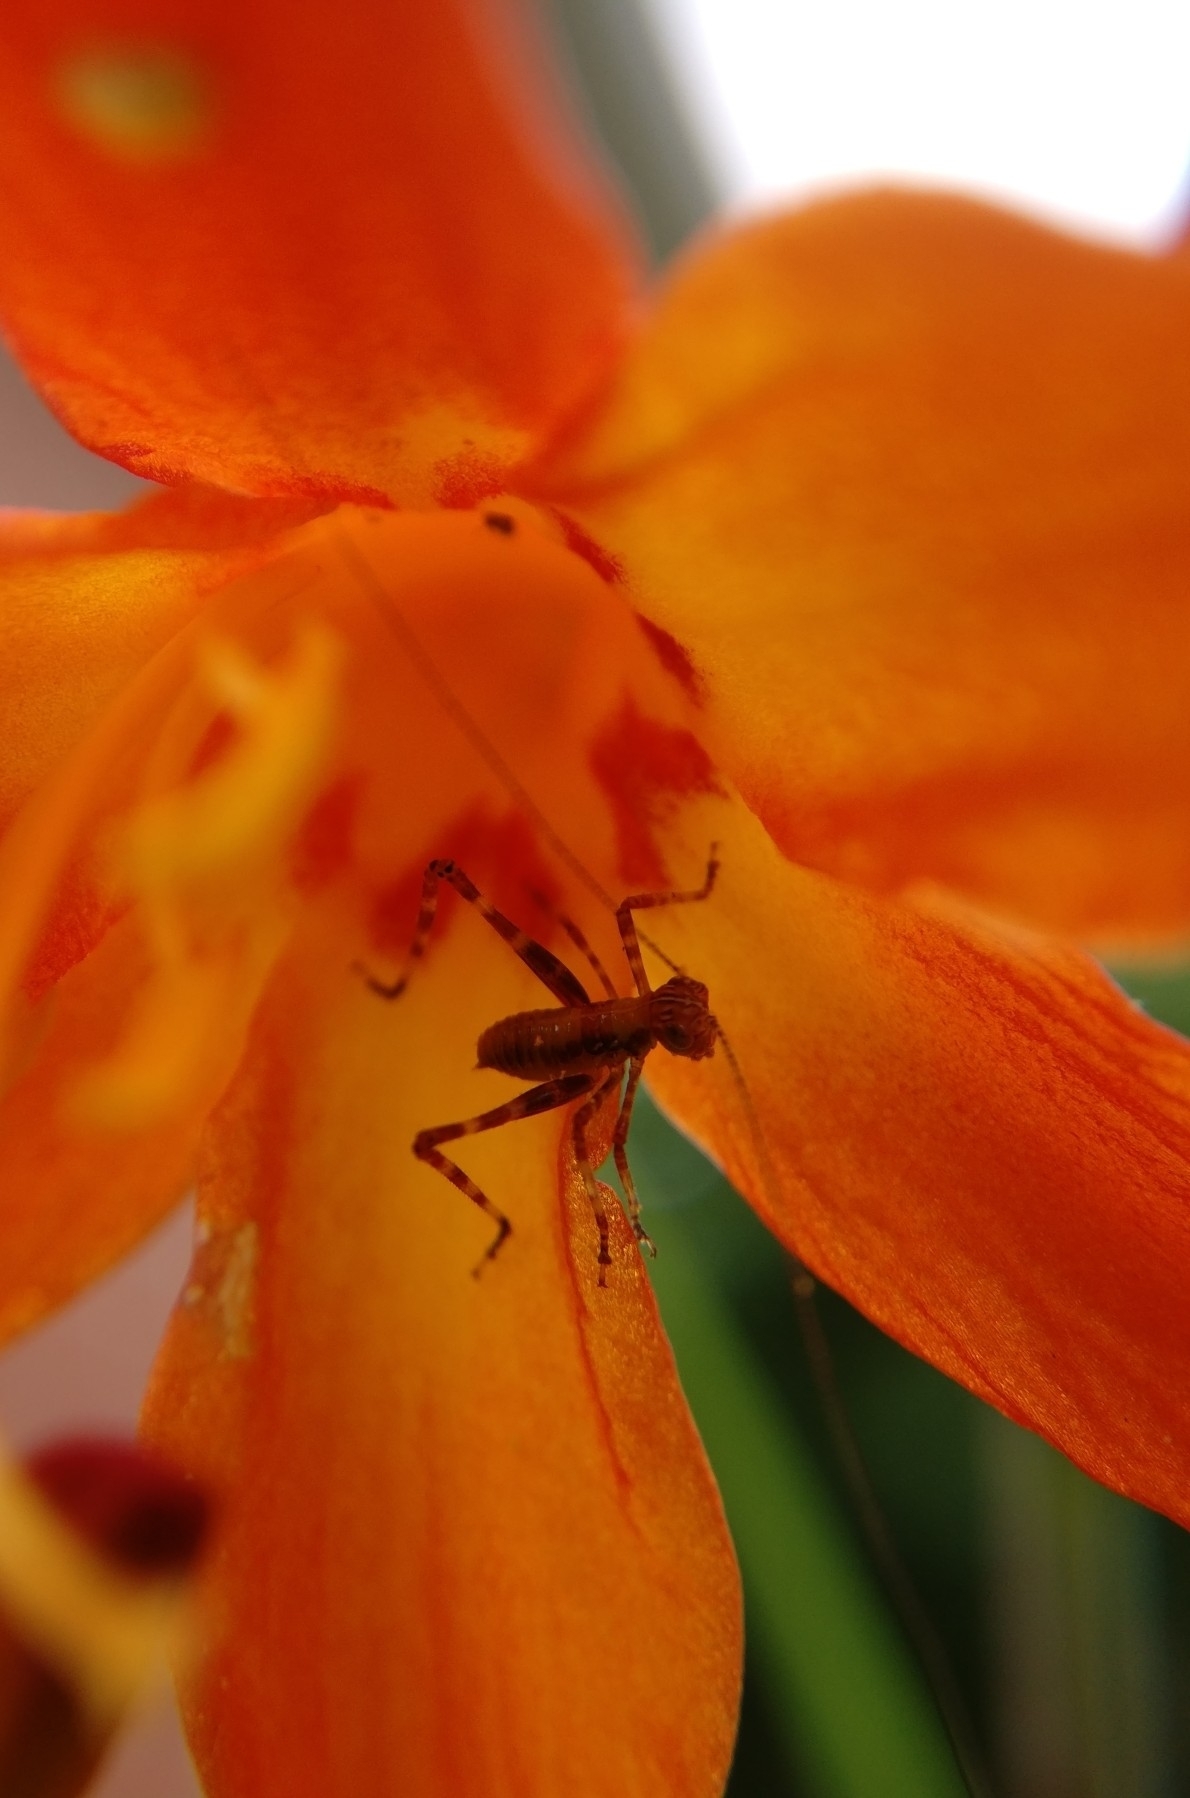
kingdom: Animalia
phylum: Arthropoda
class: Insecta
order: Orthoptera
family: Tettigoniidae
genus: Caedicia
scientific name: Caedicia simplex
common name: Common garden katydid
